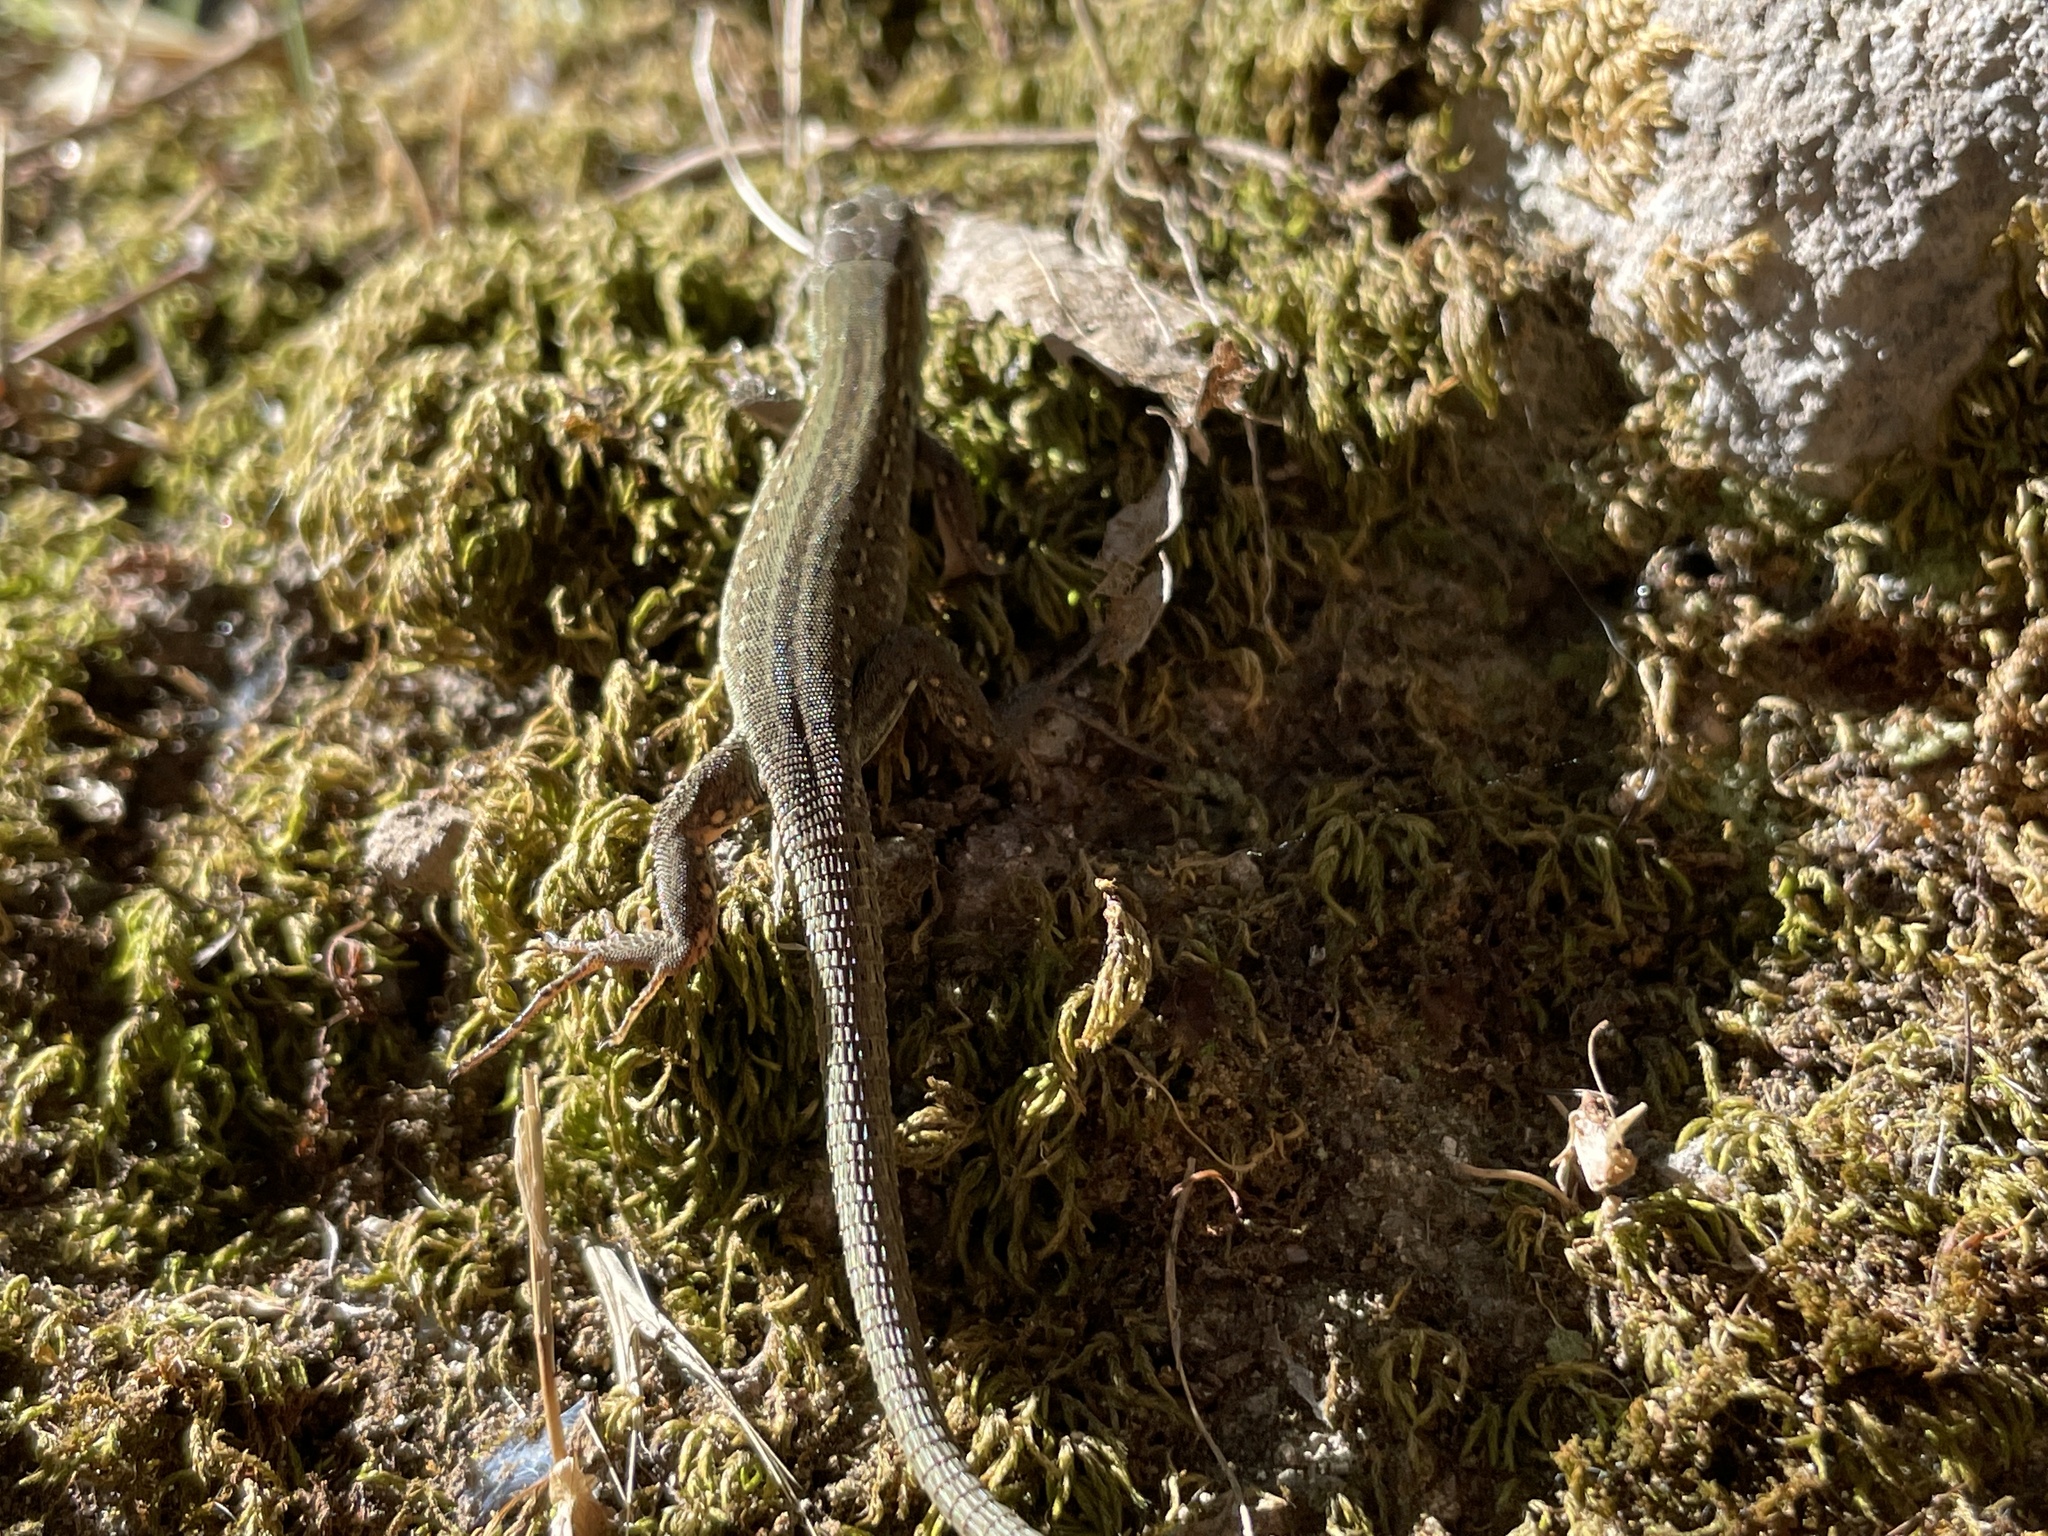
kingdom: Animalia
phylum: Chordata
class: Squamata
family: Lacertidae
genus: Podarcis
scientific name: Podarcis siculus
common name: Italian wall lizard
